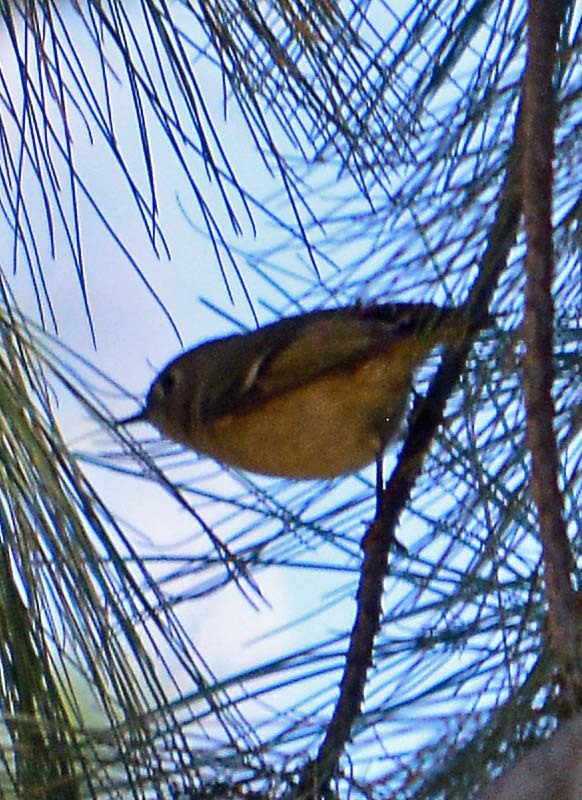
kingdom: Animalia
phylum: Chordata
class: Aves
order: Passeriformes
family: Regulidae
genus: Regulus
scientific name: Regulus calendula
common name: Ruby-crowned kinglet
